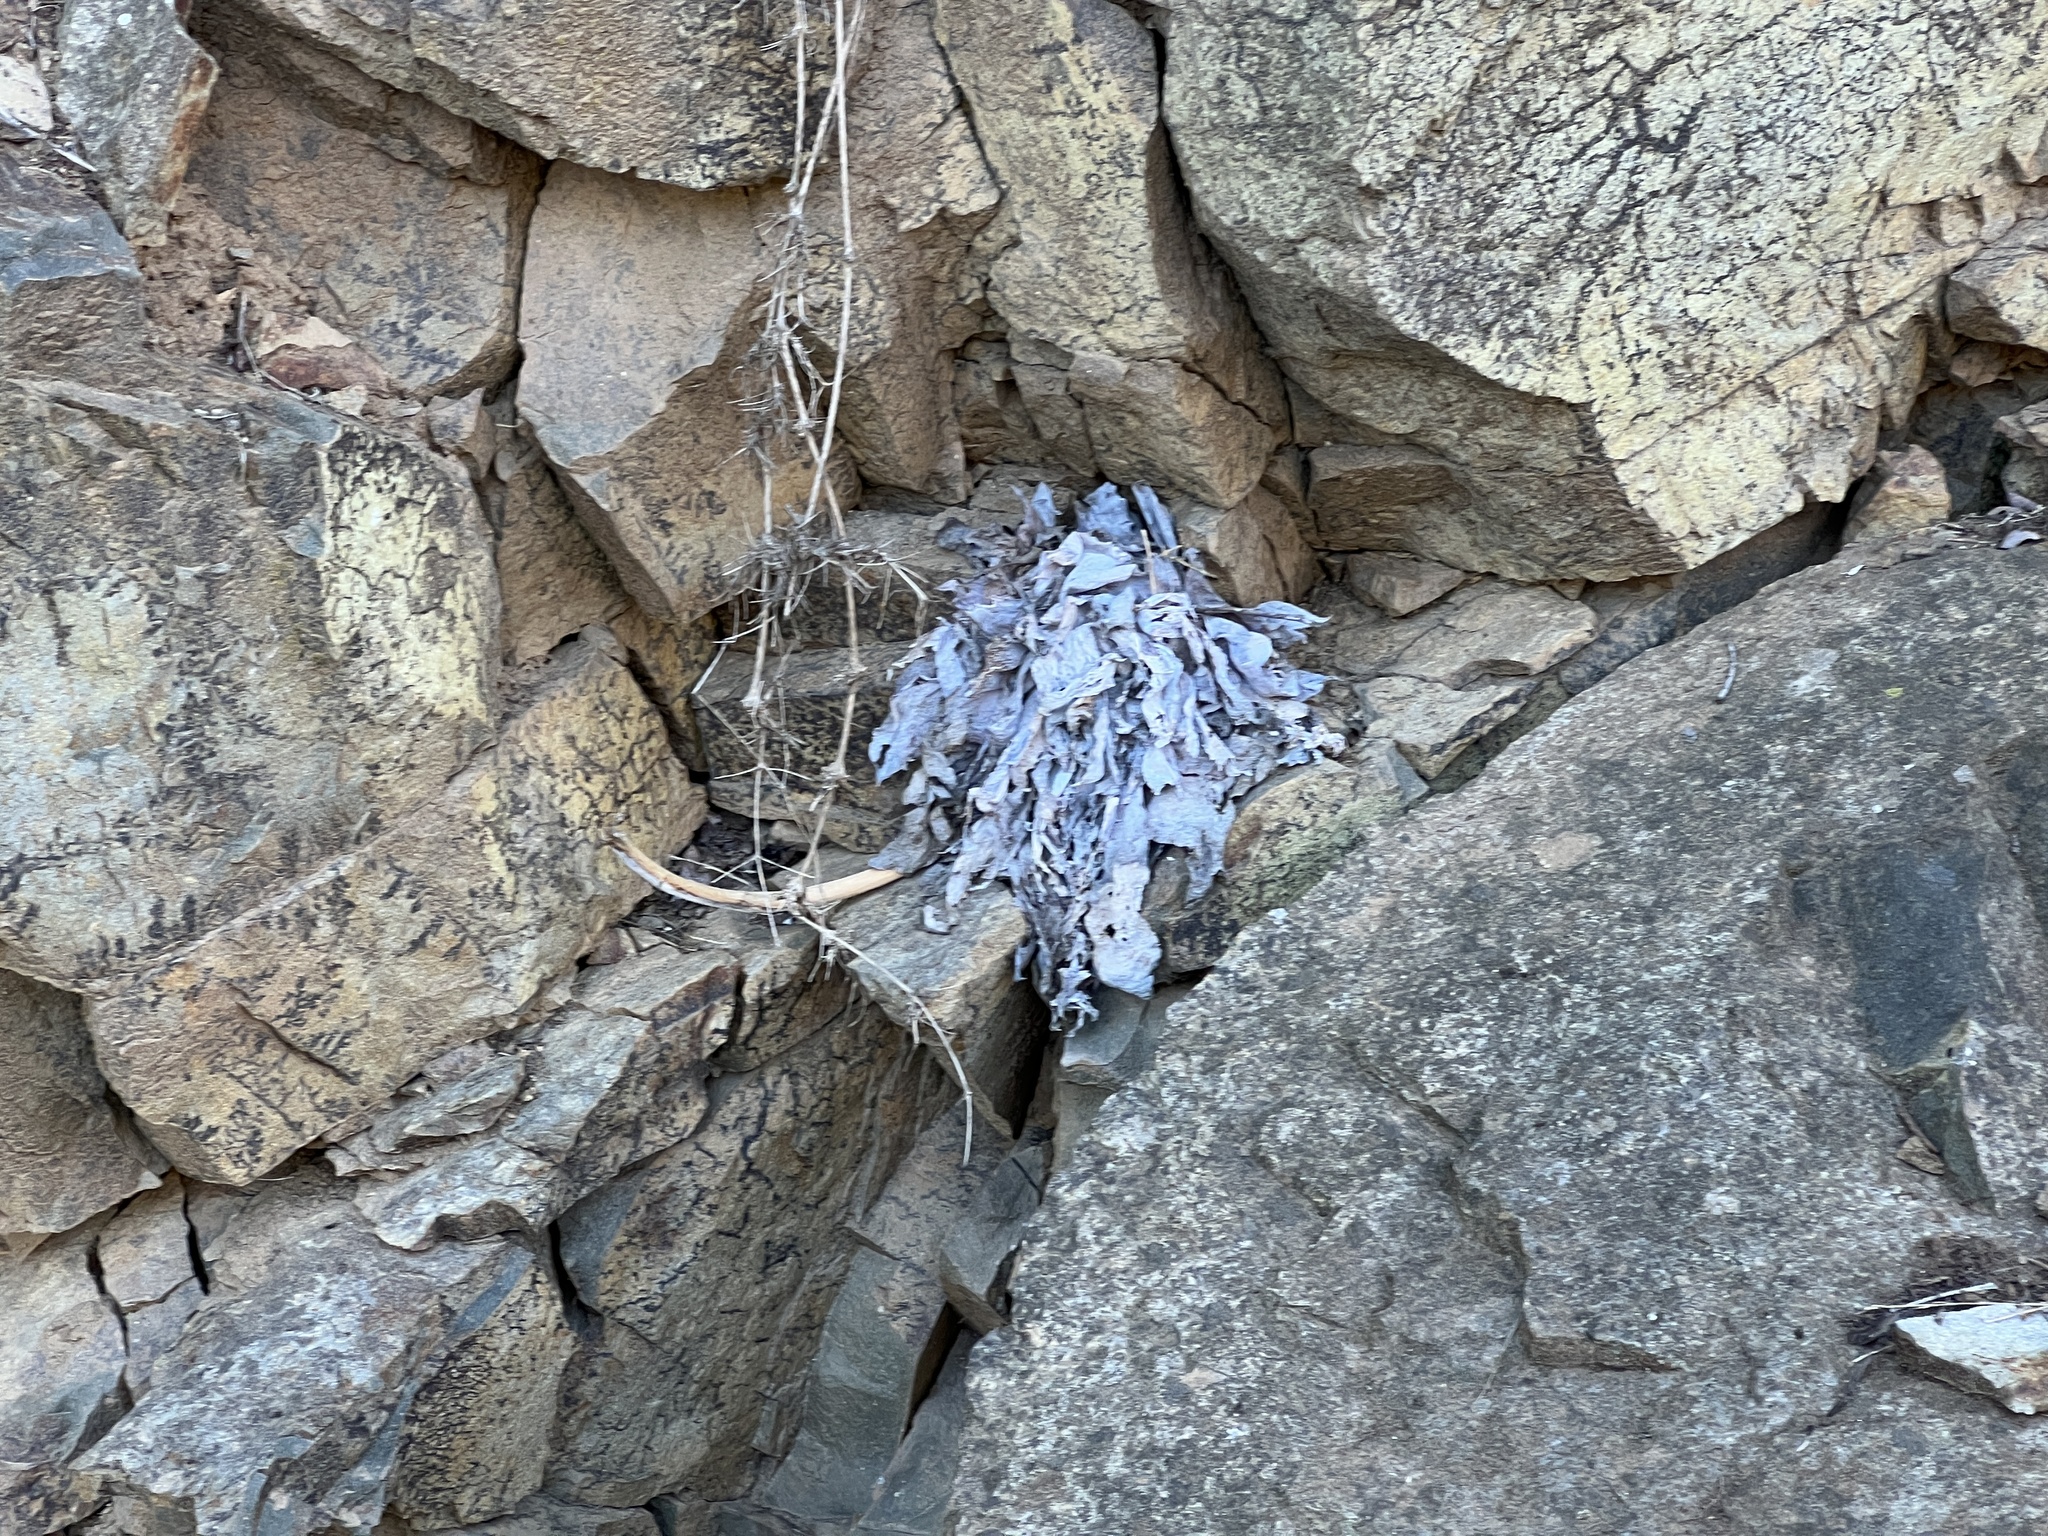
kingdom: Plantae
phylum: Tracheophyta
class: Magnoliopsida
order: Saxifragales
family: Crassulaceae
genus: Dudleya
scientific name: Dudleya pulverulenta
